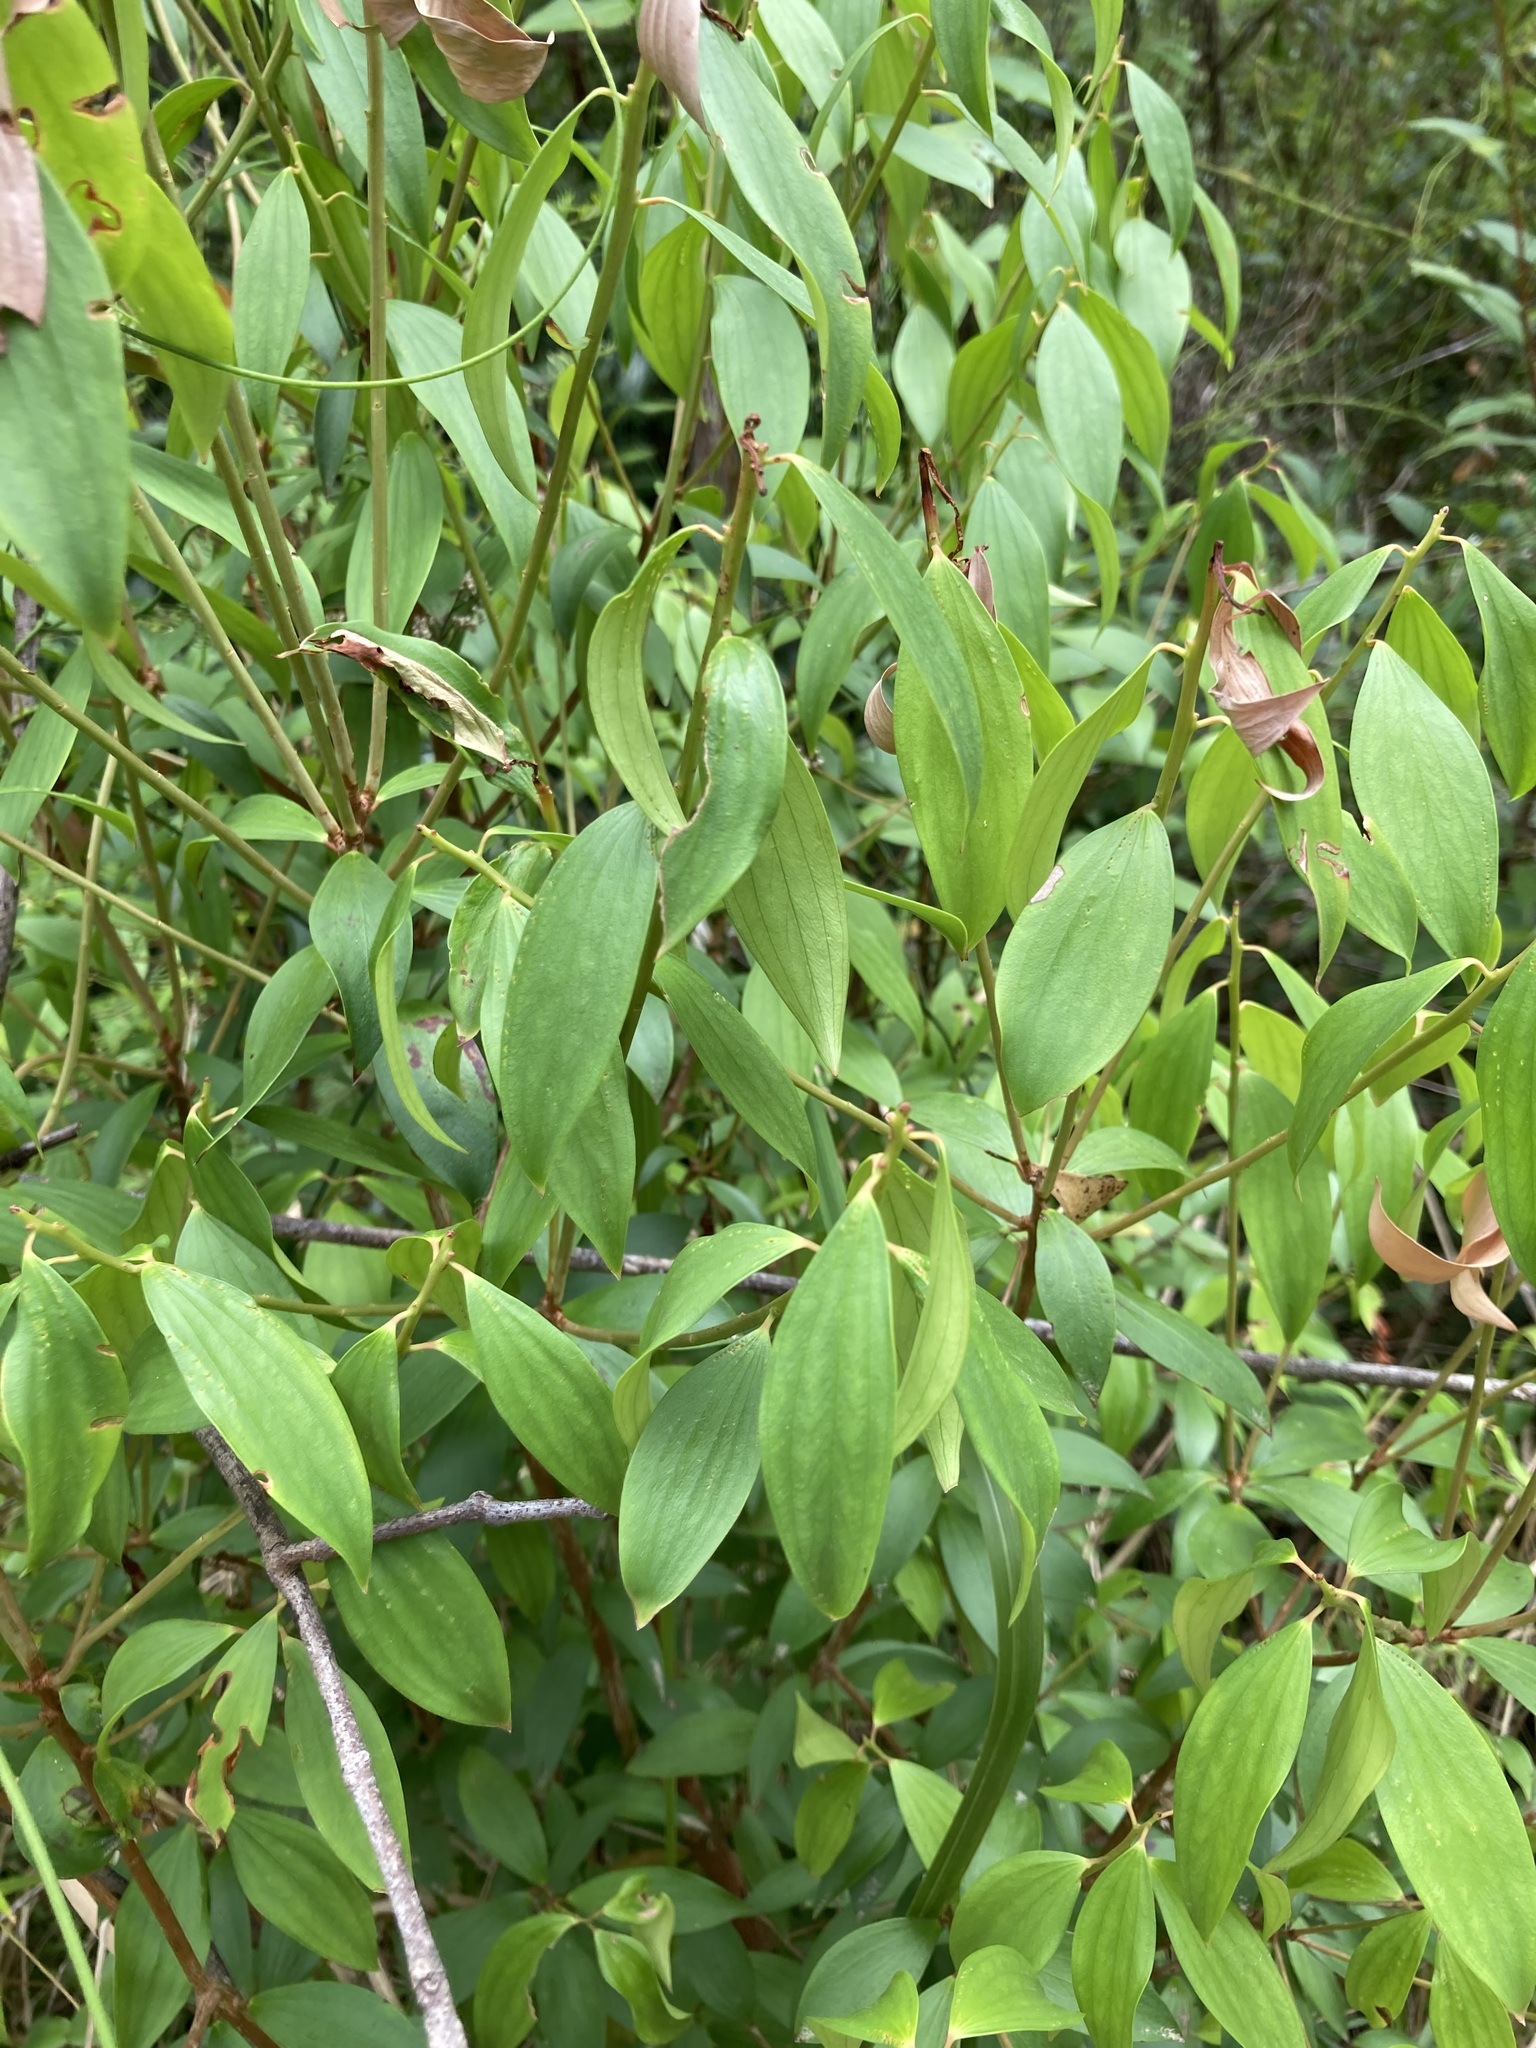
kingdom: Plantae
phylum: Tracheophyta
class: Magnoliopsida
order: Ericales
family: Ericaceae
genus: Trochocarpa
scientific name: Trochocarpa laurina
